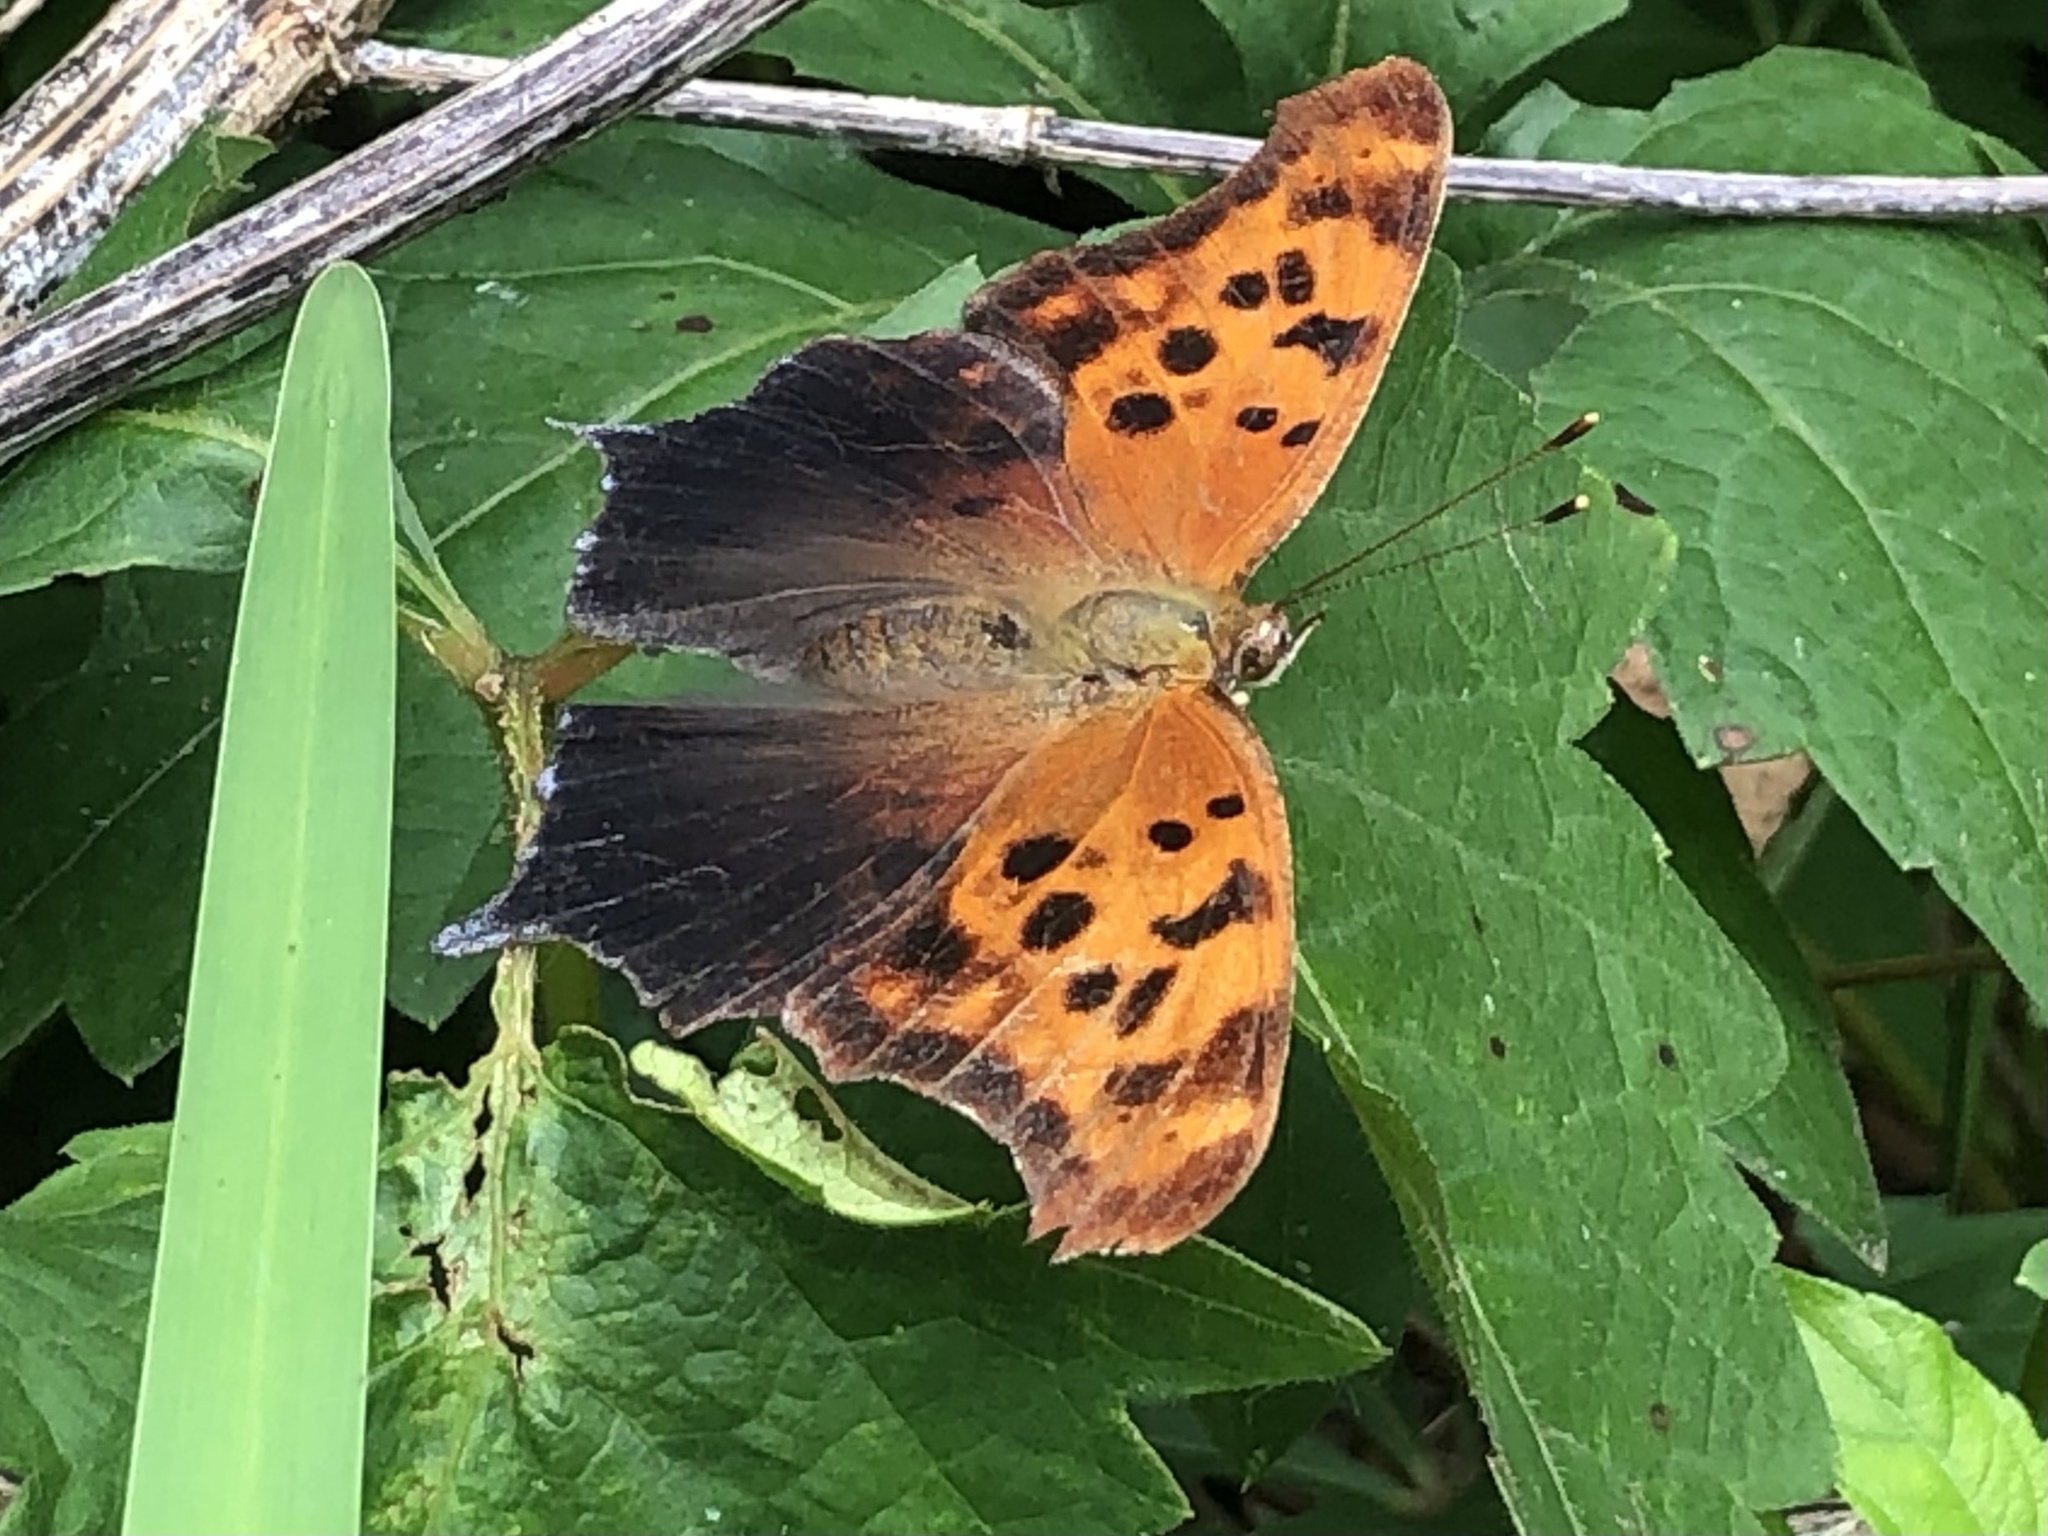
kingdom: Animalia
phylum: Arthropoda
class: Insecta
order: Lepidoptera
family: Nymphalidae
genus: Polygonia
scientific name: Polygonia interrogationis
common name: Question mark
